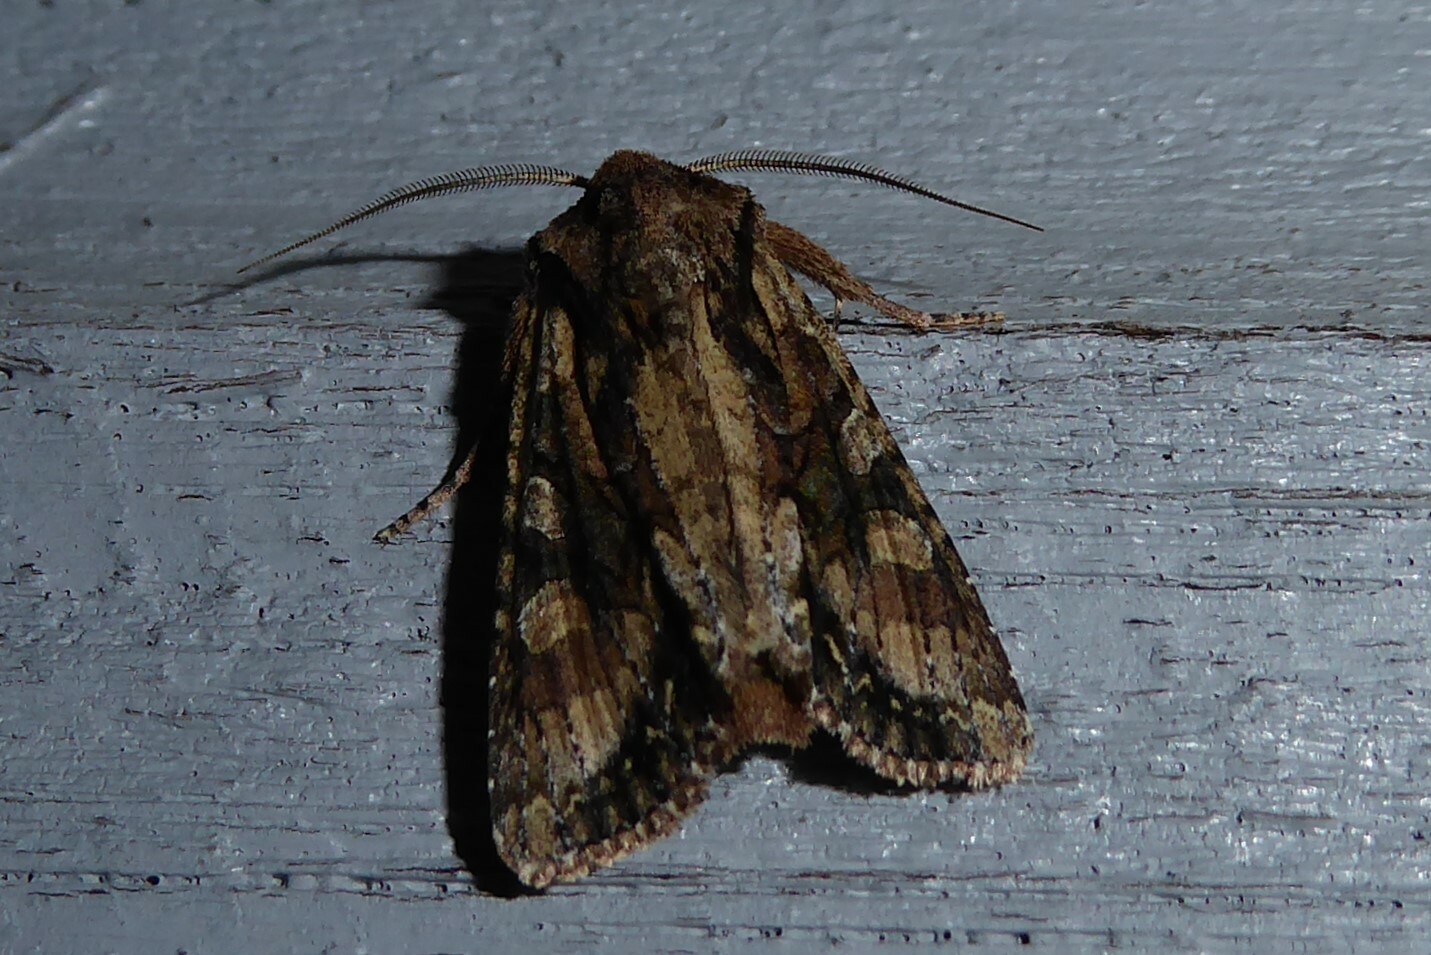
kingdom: Animalia
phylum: Arthropoda
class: Insecta
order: Lepidoptera
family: Noctuidae
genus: Ichneutica
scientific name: Ichneutica mutans
